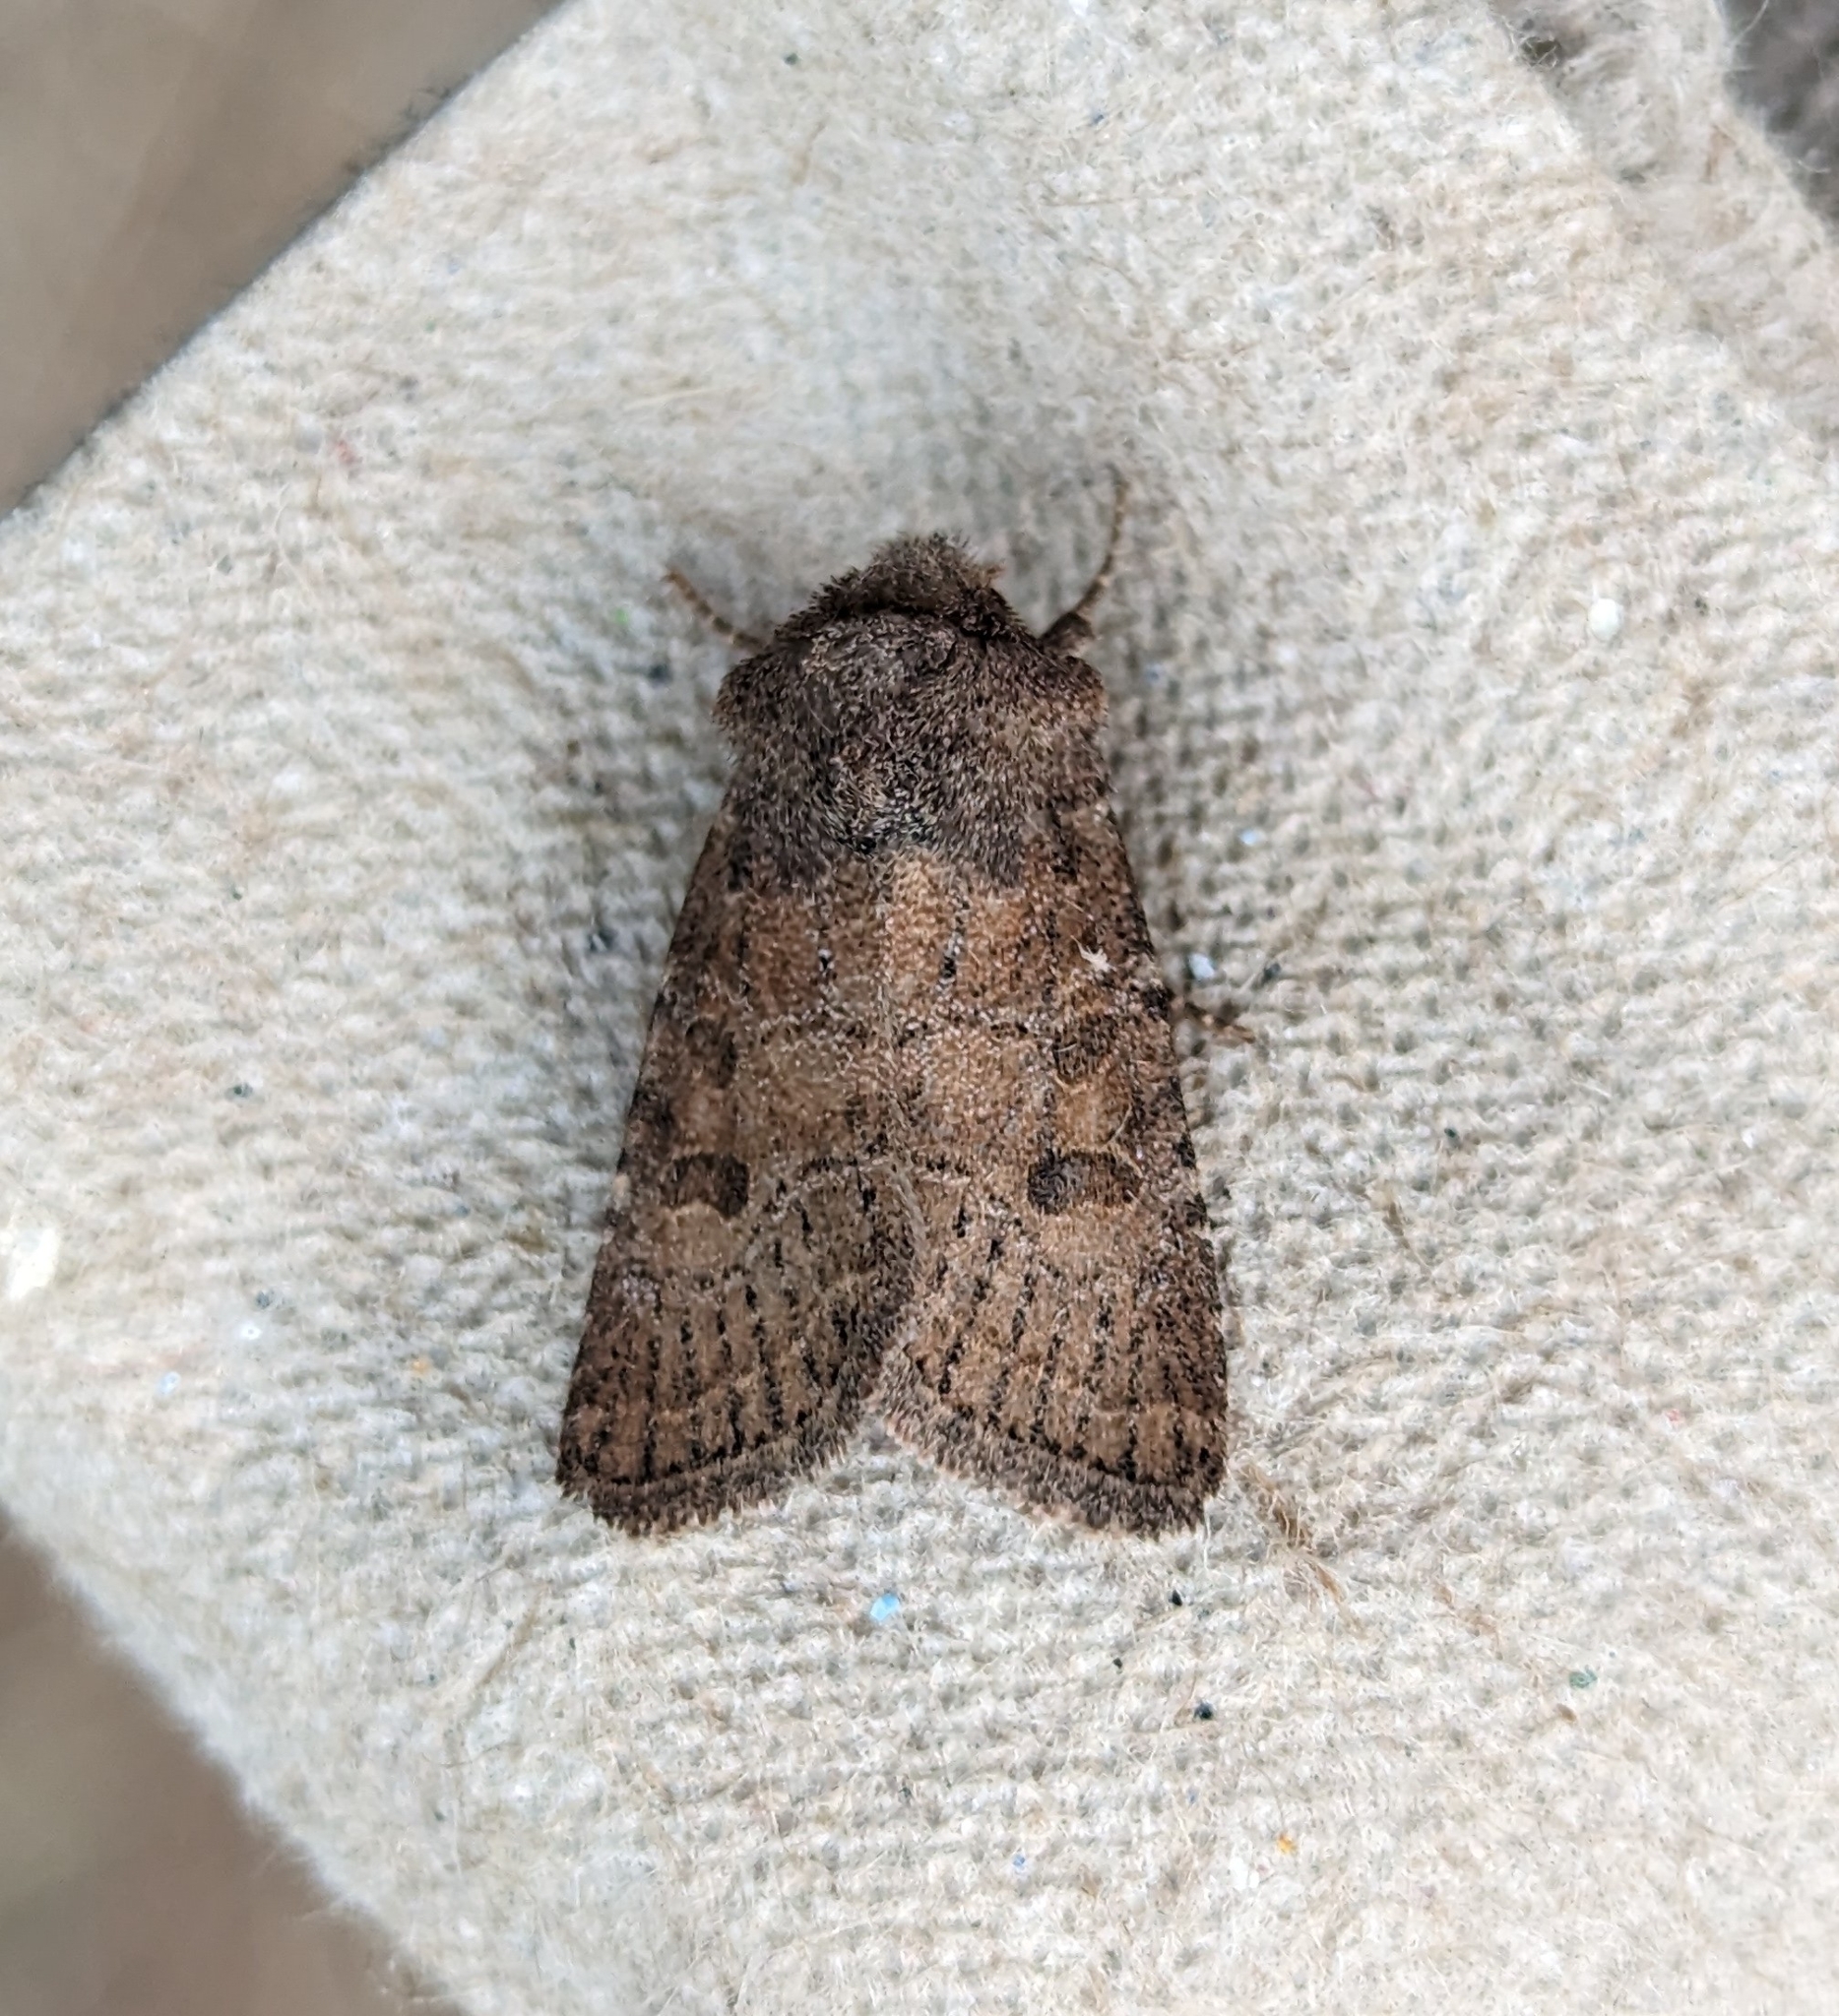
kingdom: Animalia
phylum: Arthropoda
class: Insecta
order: Lepidoptera
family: Noctuidae
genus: Trichopolia
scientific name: Trichopolia
